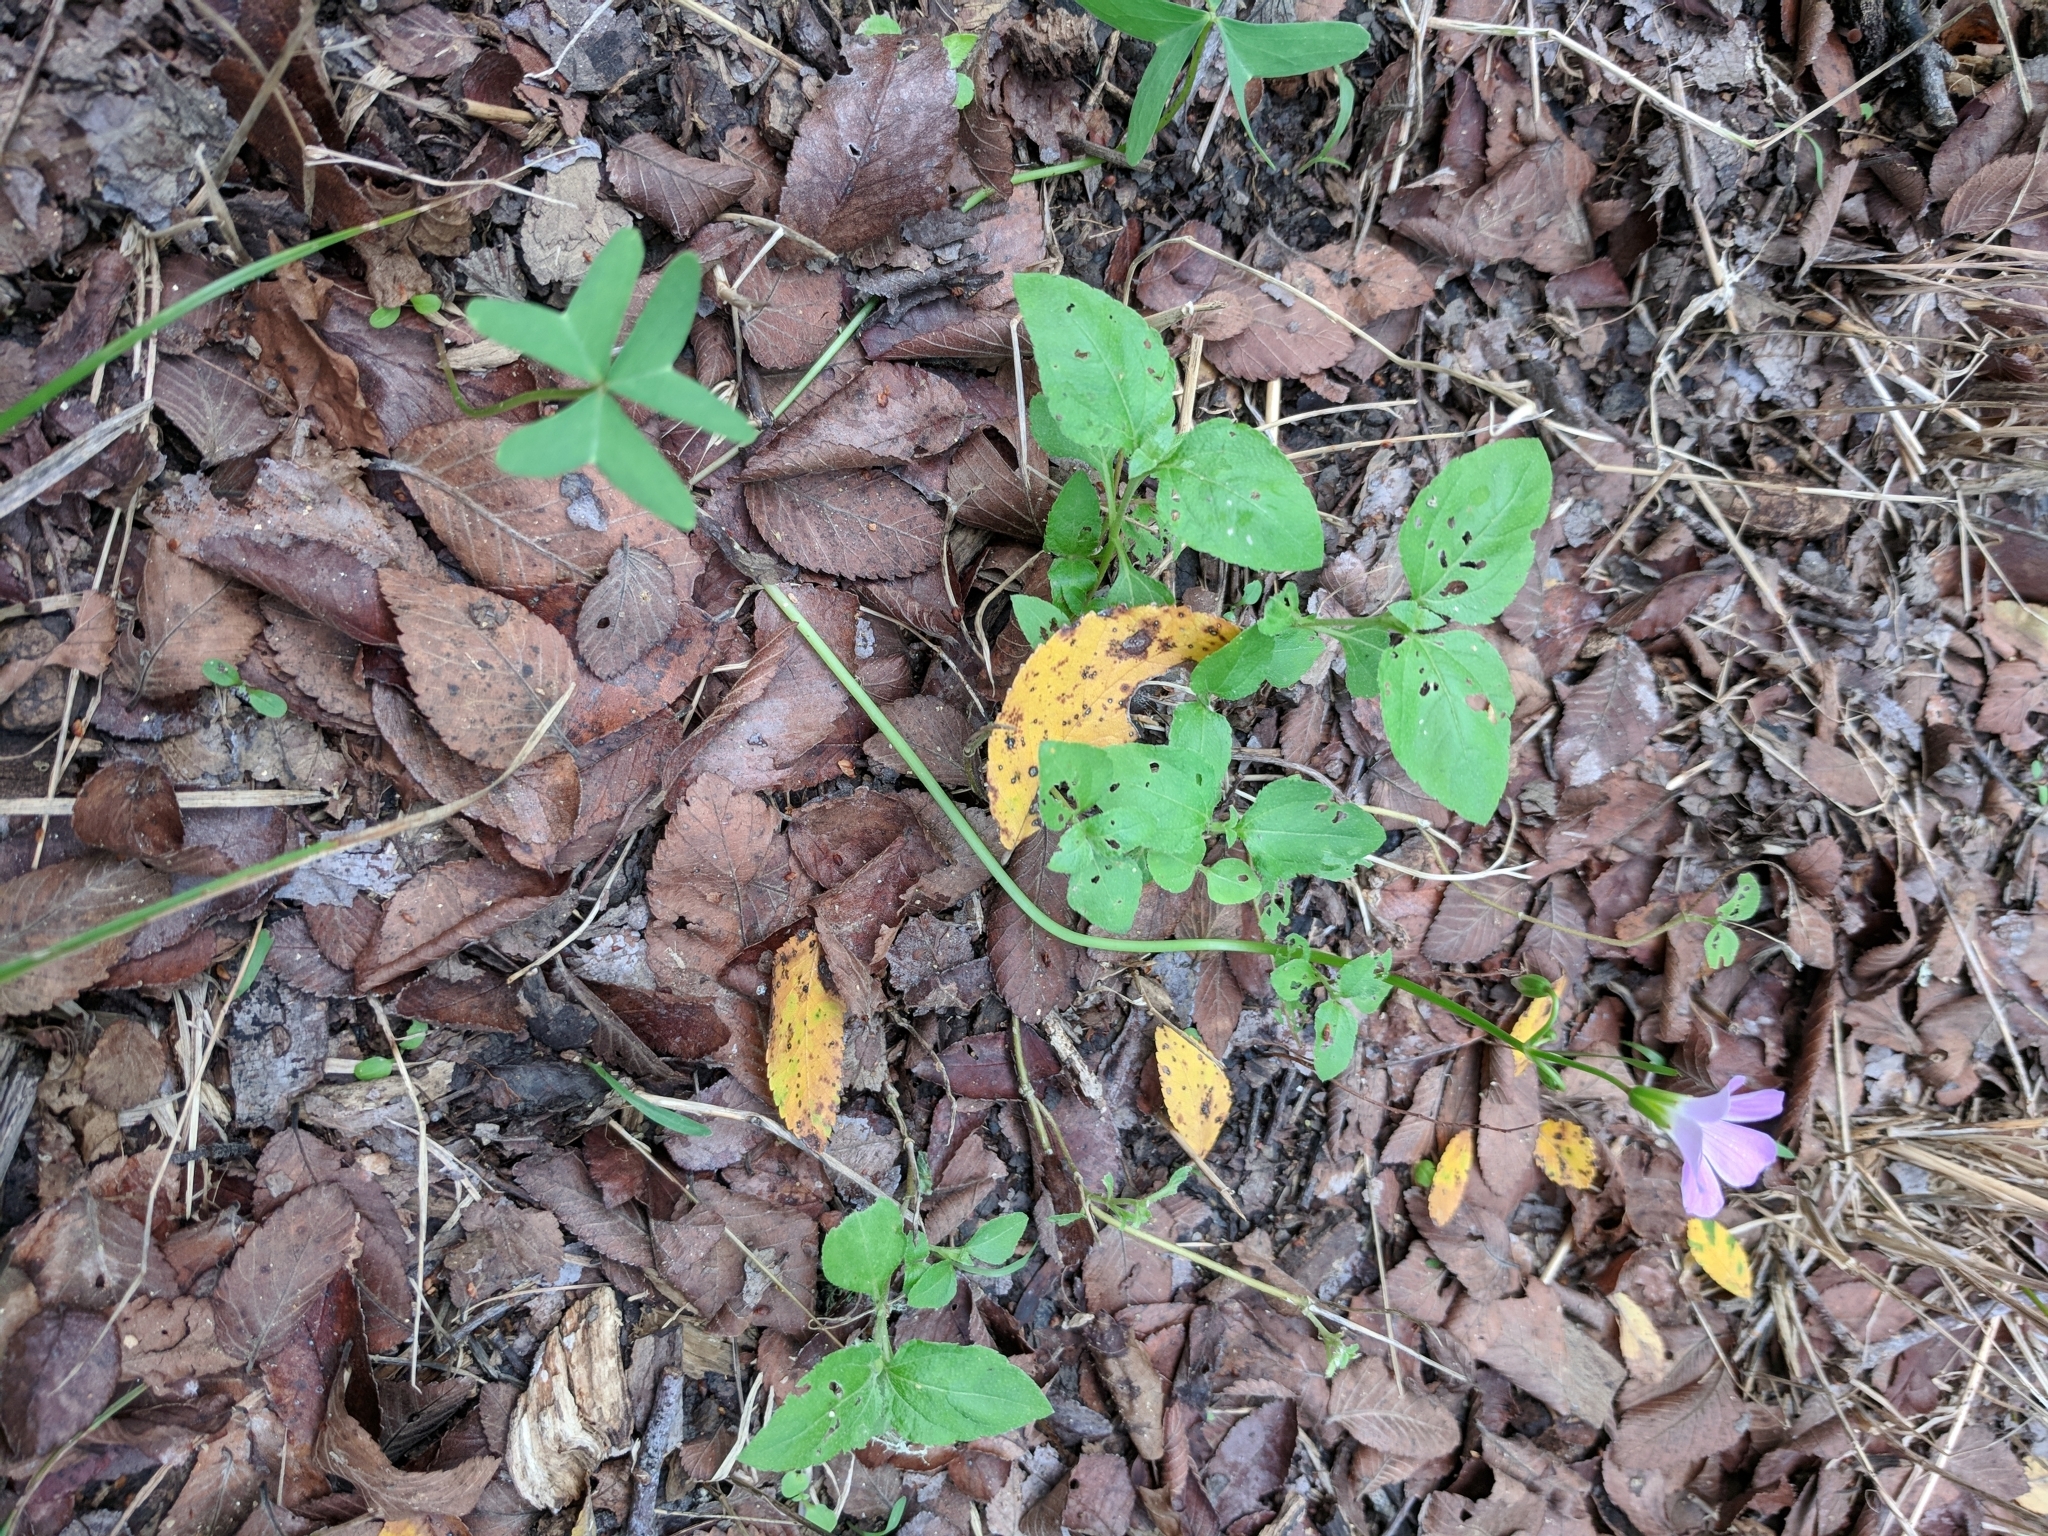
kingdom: Plantae
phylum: Tracheophyta
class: Magnoliopsida
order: Oxalidales
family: Oxalidaceae
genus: Oxalis
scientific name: Oxalis drummondii
